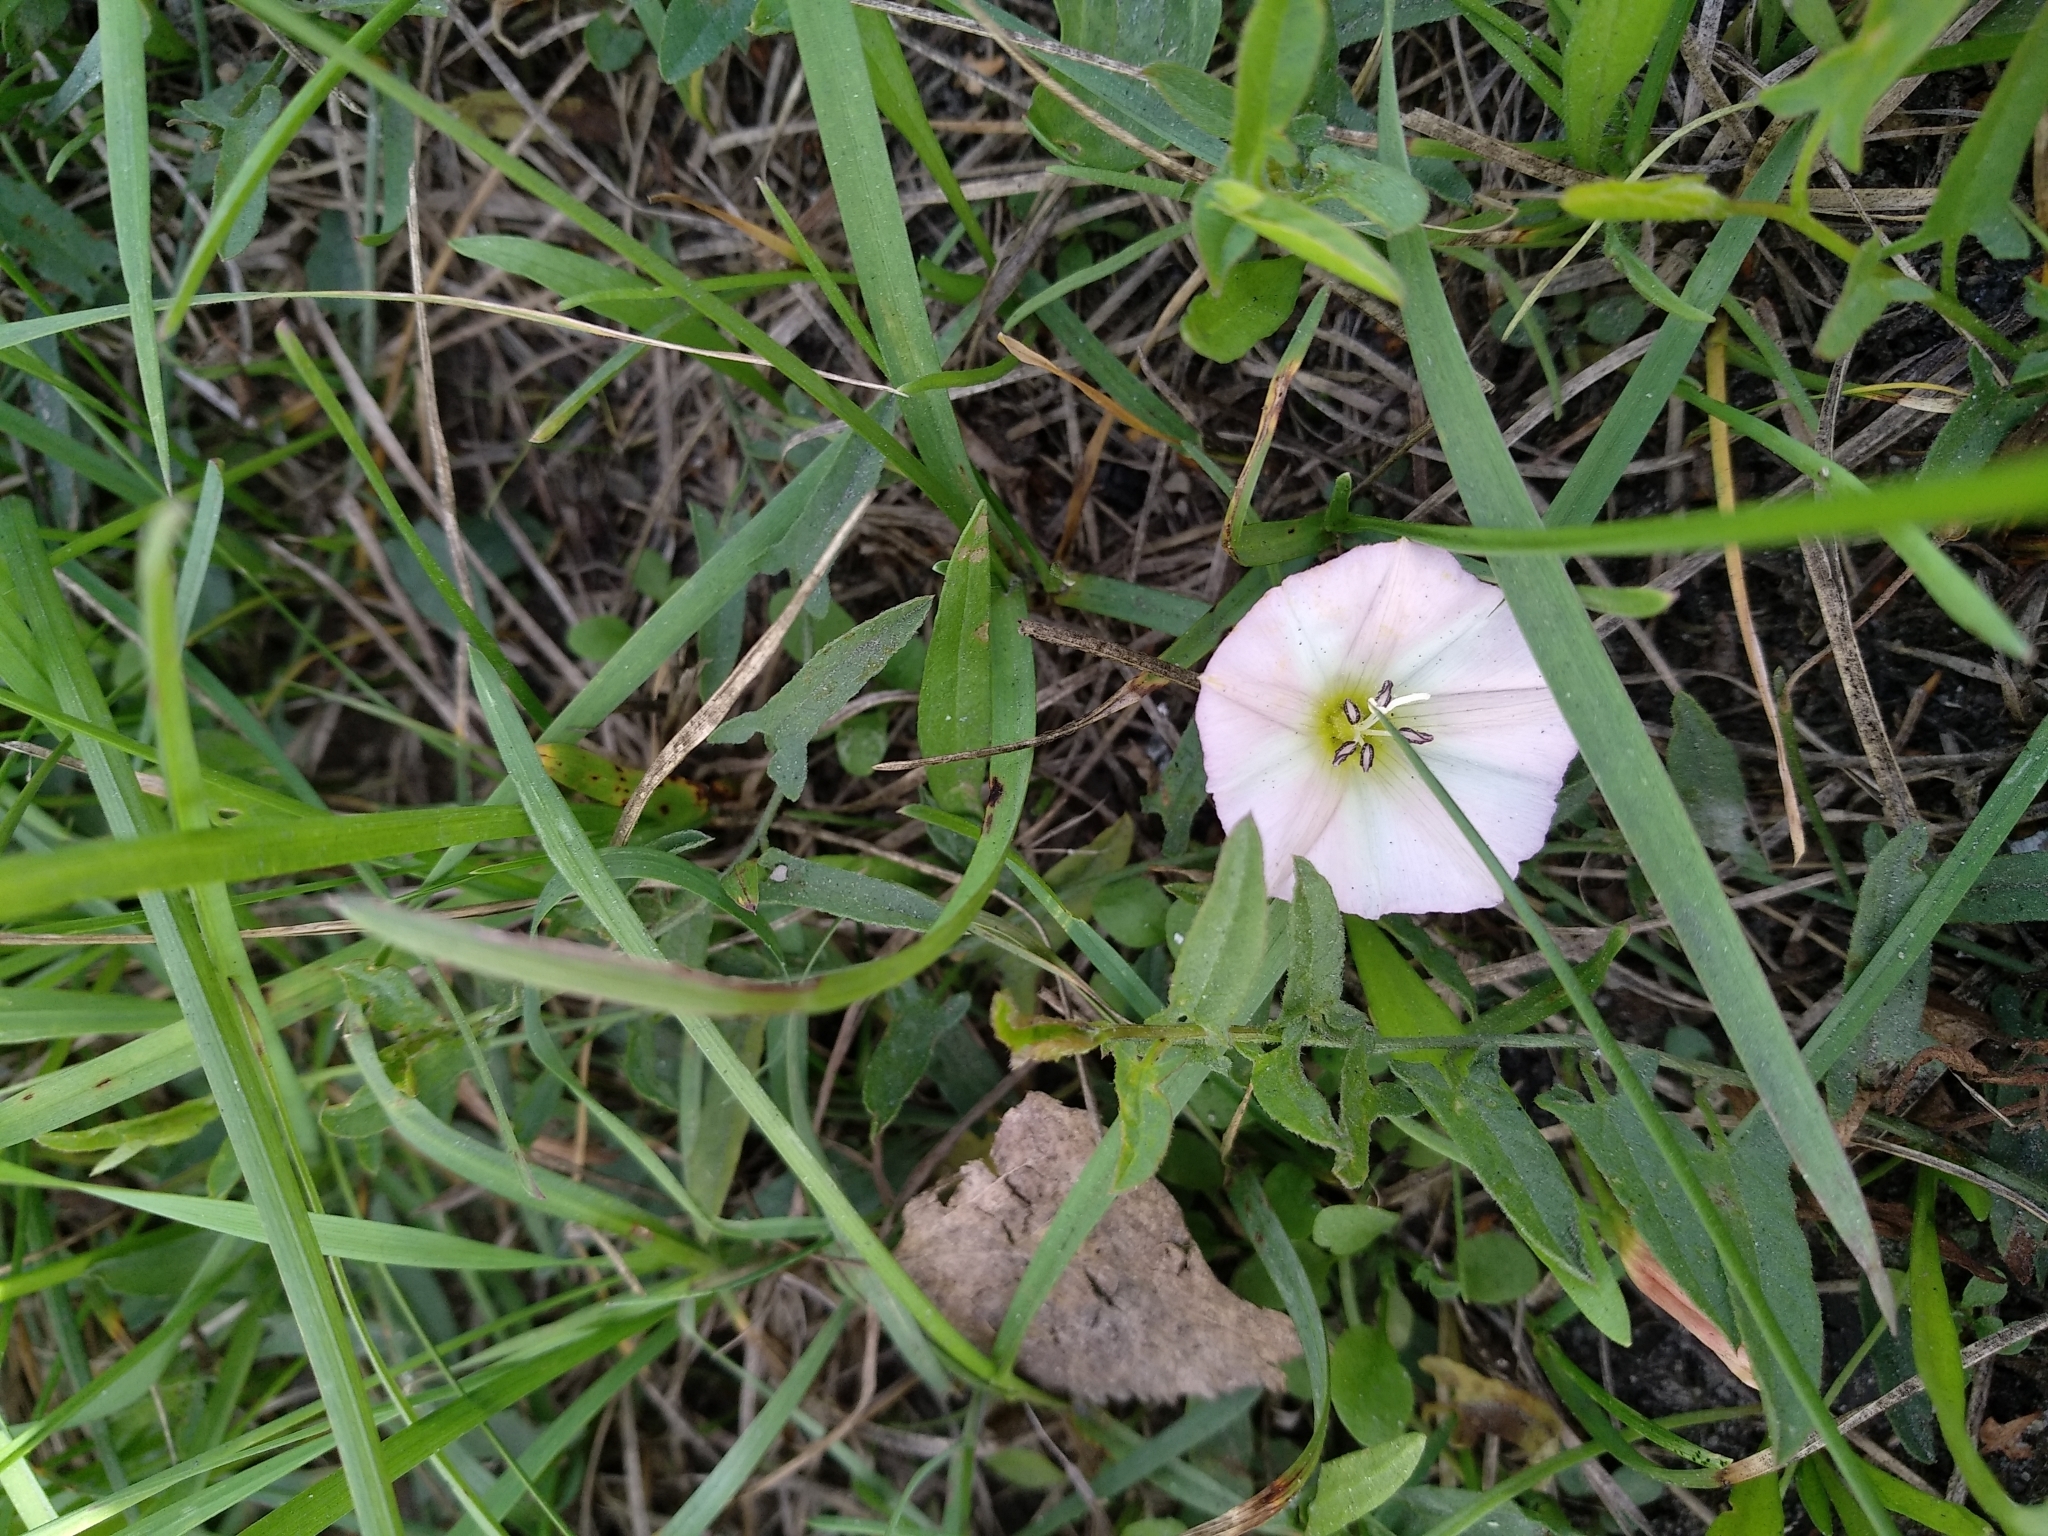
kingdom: Plantae
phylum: Tracheophyta
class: Magnoliopsida
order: Solanales
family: Convolvulaceae
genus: Convolvulus
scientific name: Convolvulus arvensis
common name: Field bindweed
